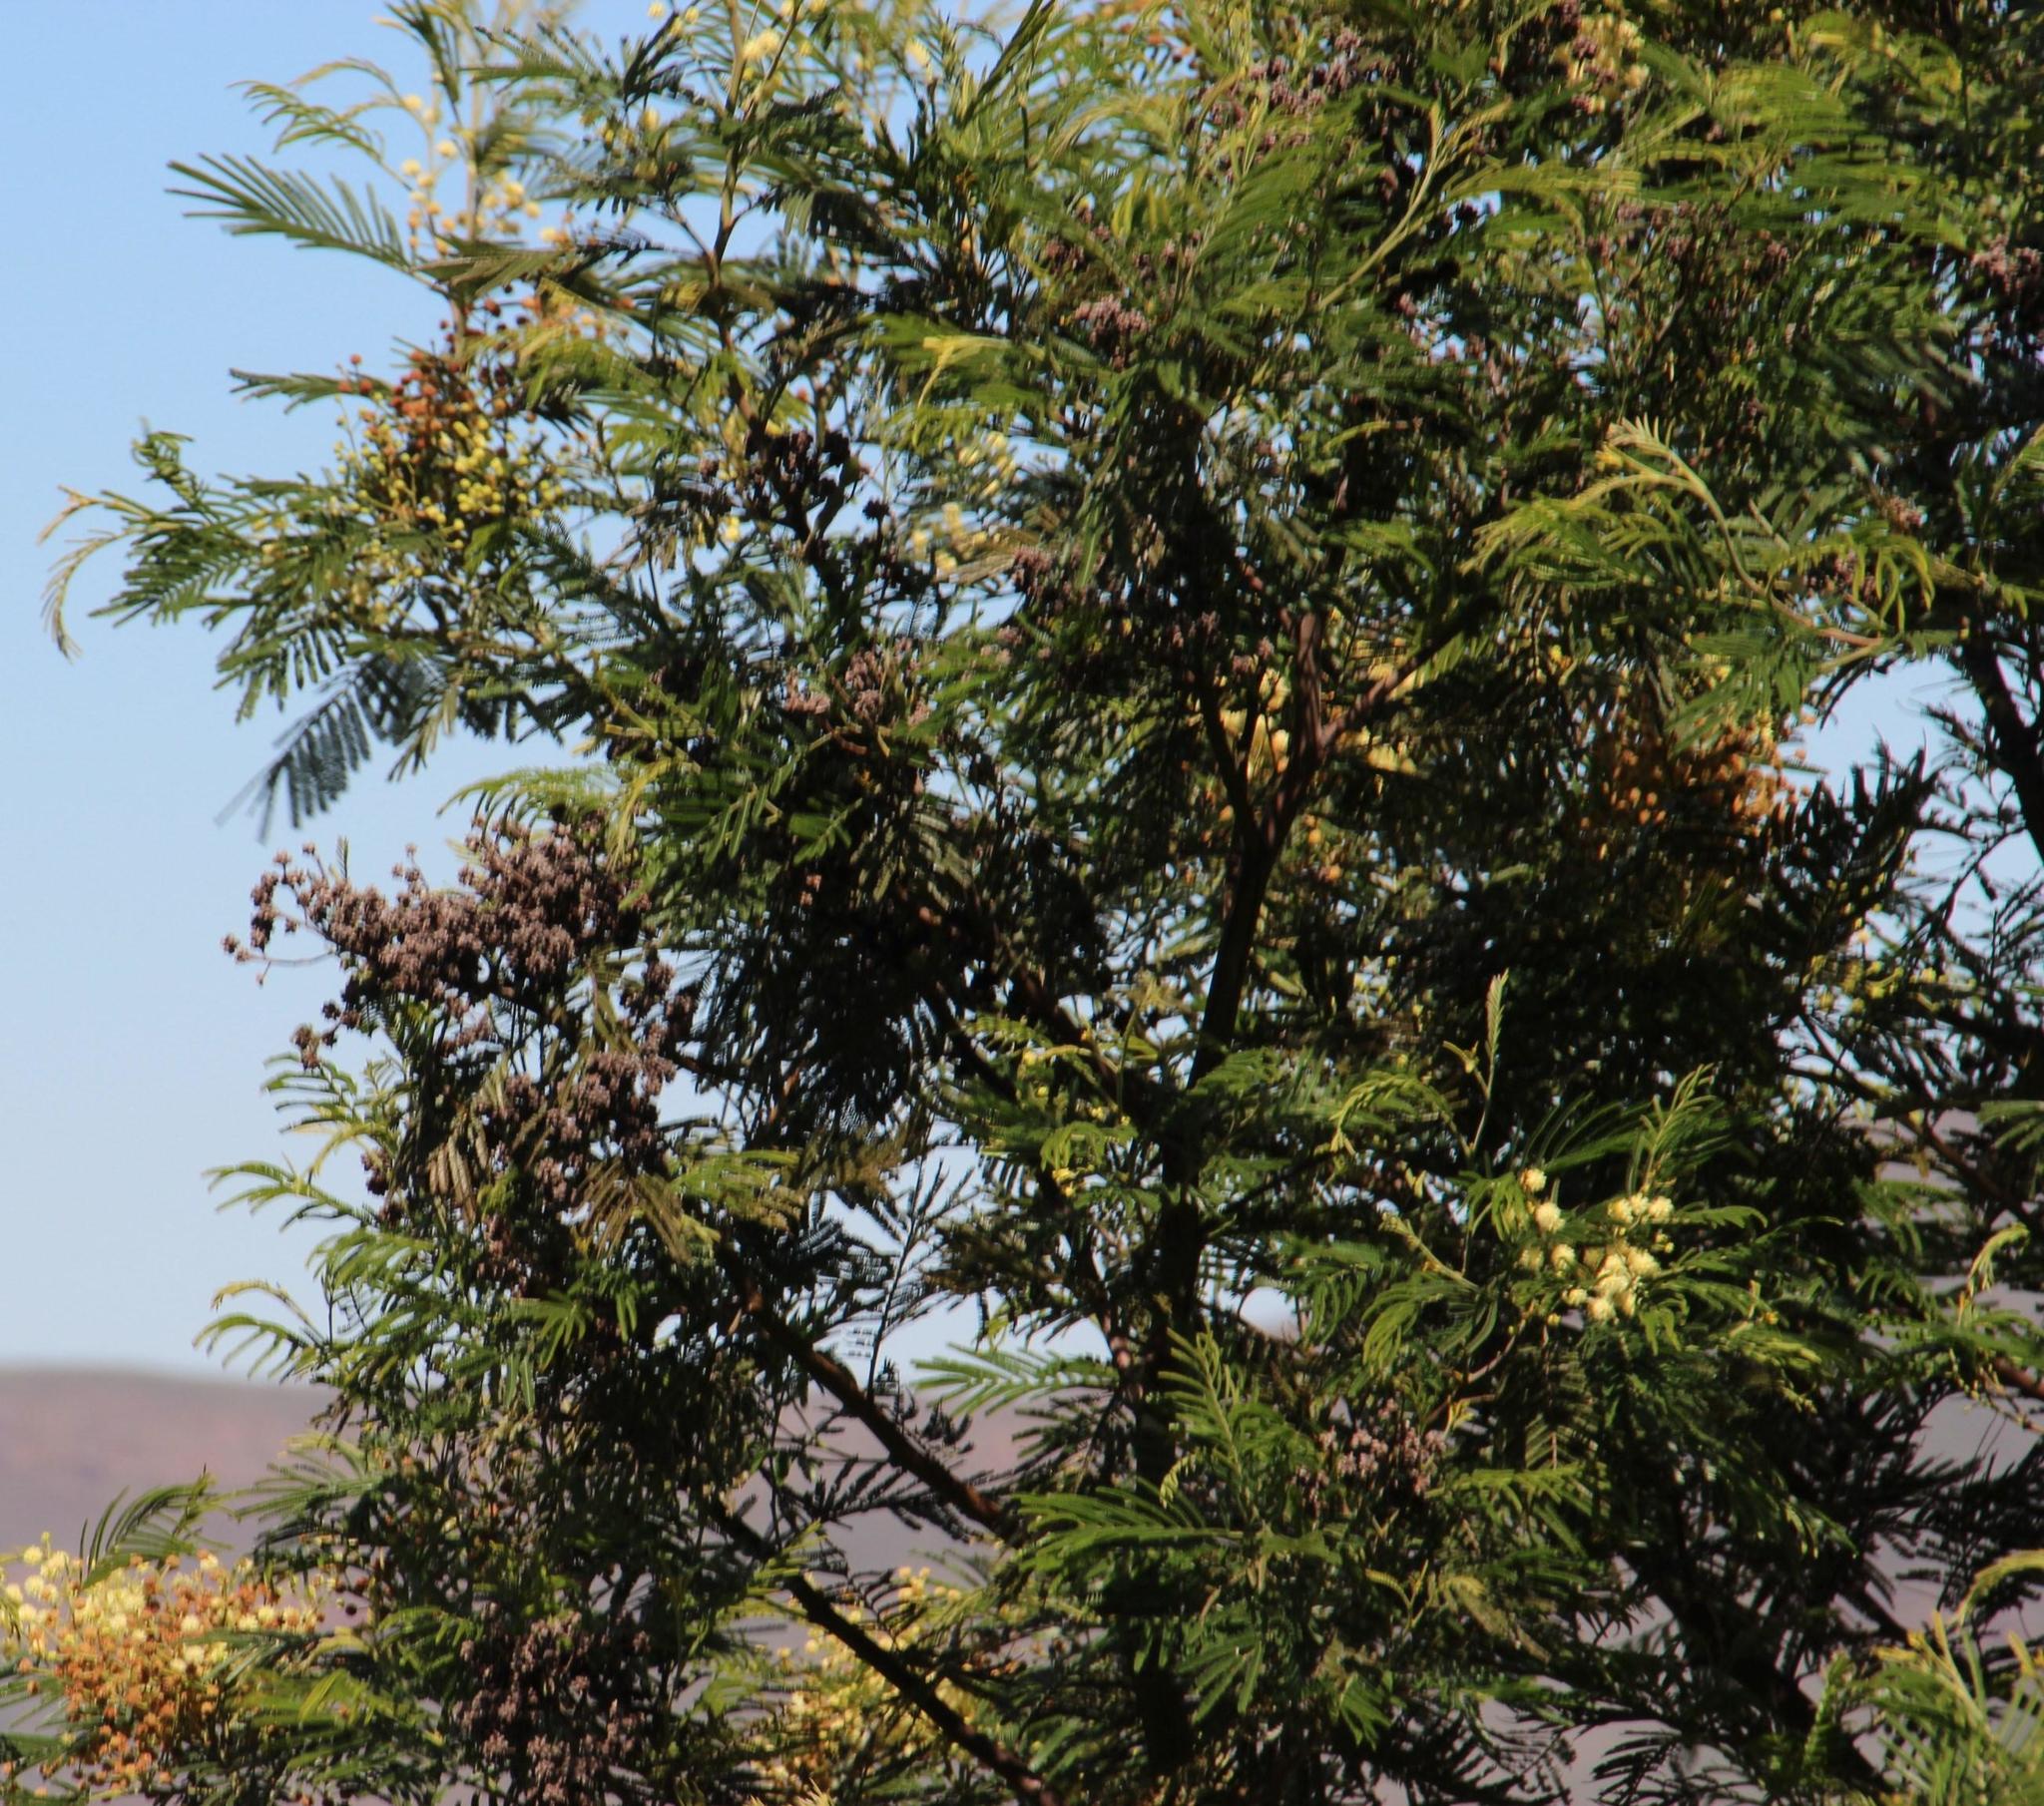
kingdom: Plantae
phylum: Tracheophyta
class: Magnoliopsida
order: Fabales
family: Fabaceae
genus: Acacia
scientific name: Acacia mearnsii
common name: Black wattle
